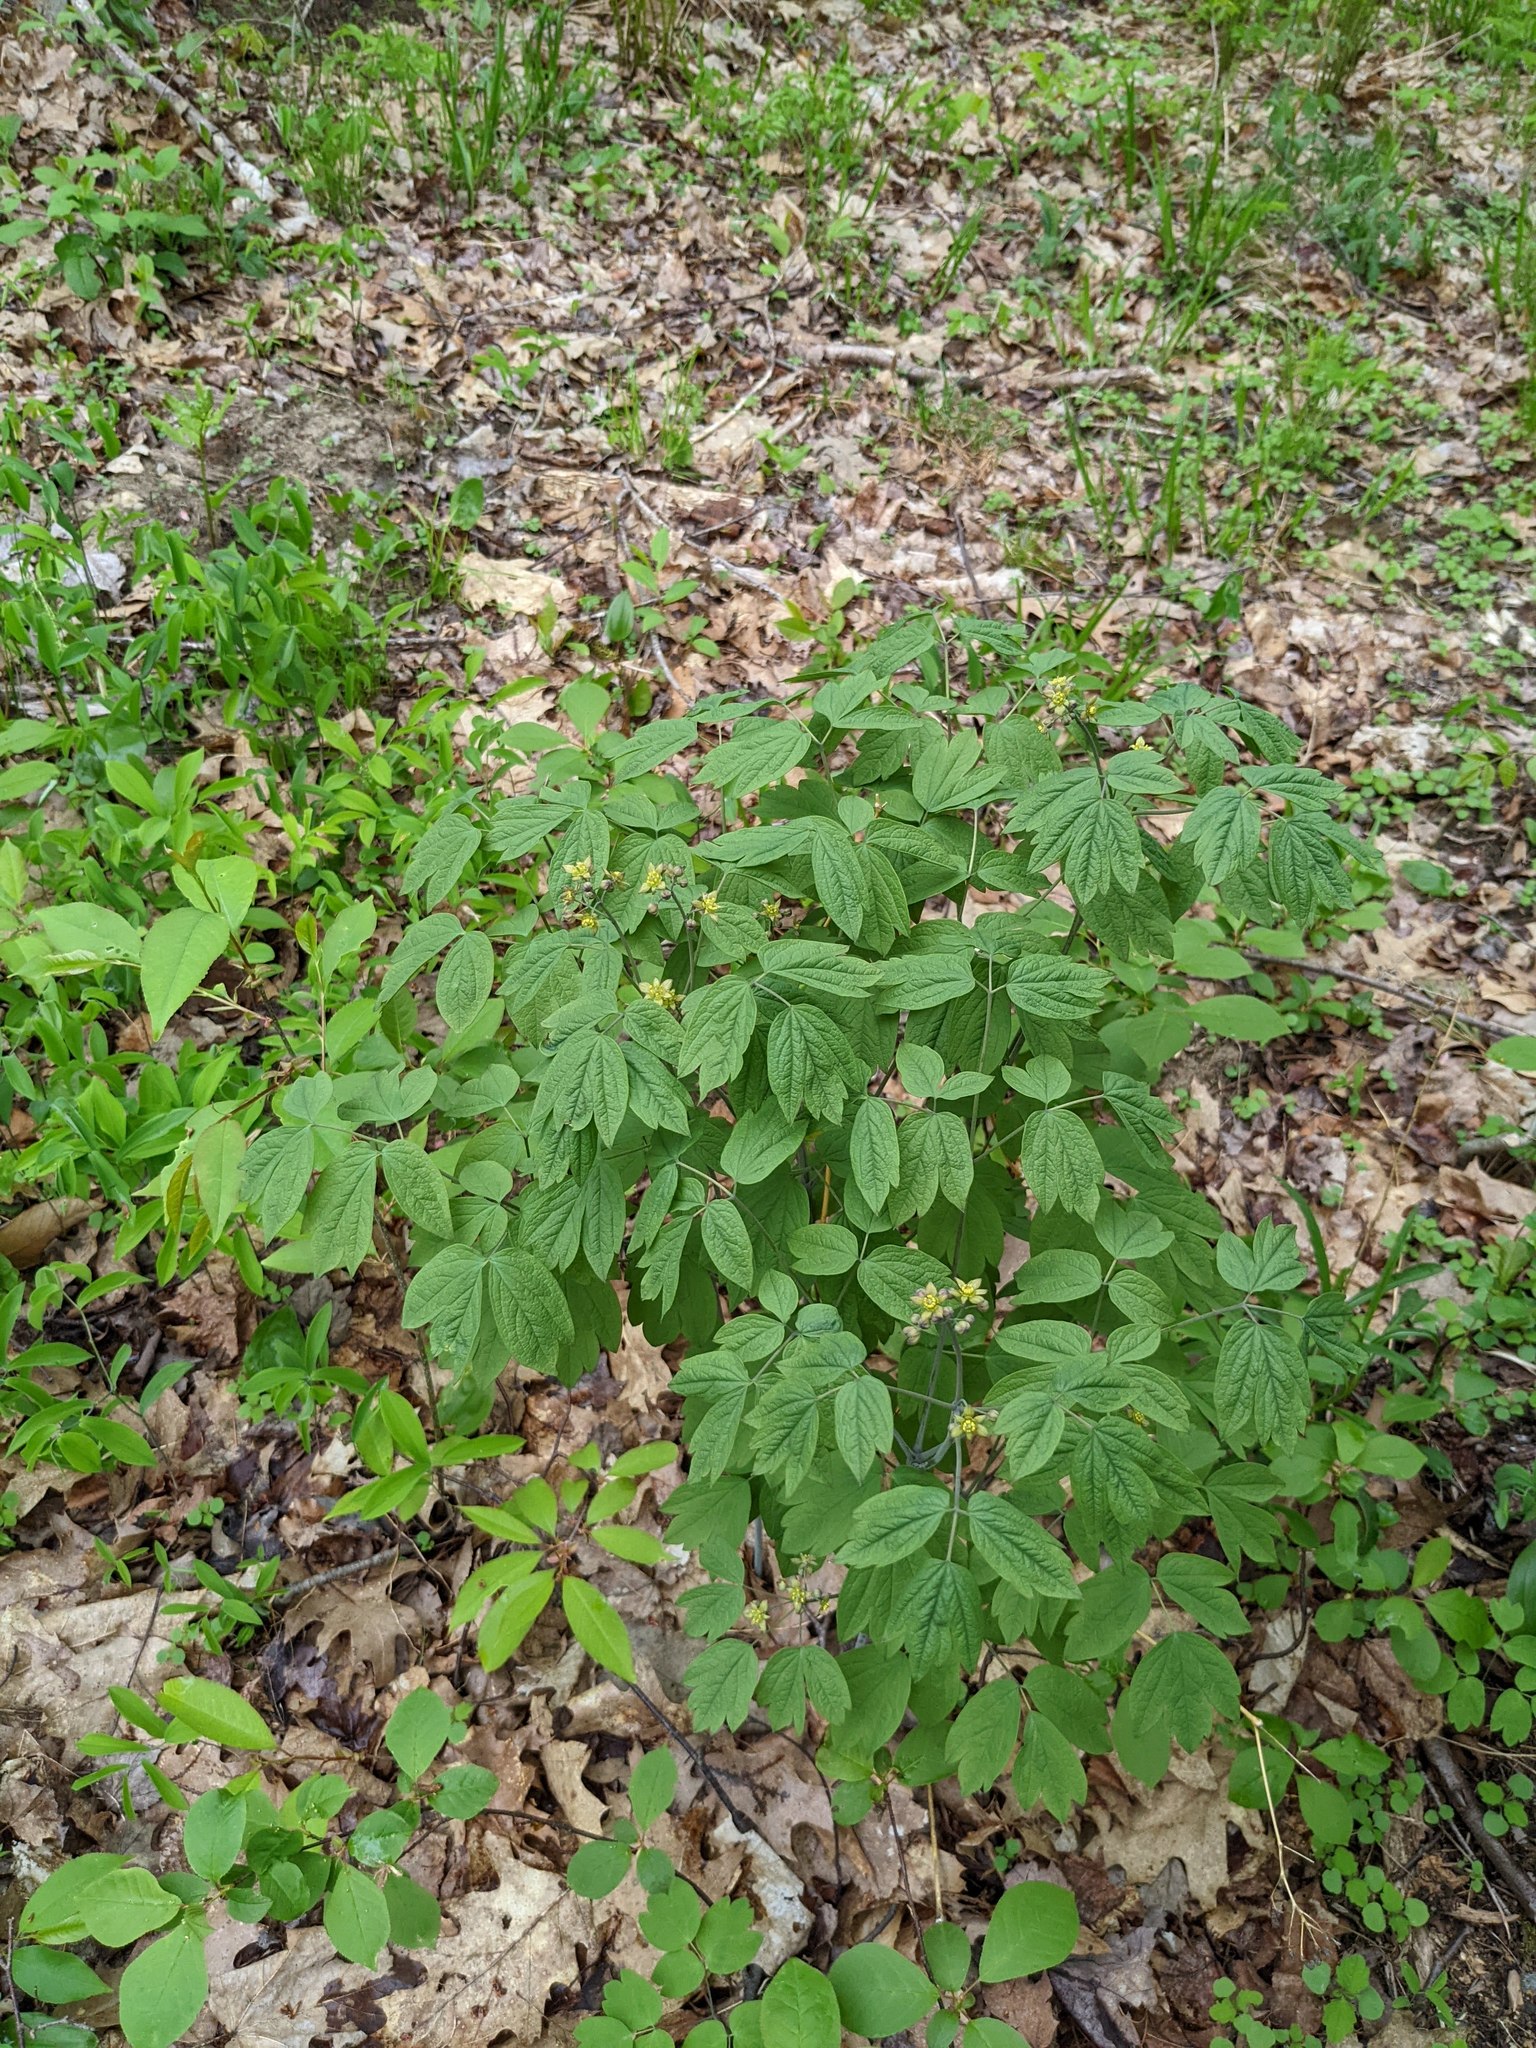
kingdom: Plantae
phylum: Tracheophyta
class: Magnoliopsida
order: Ranunculales
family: Berberidaceae
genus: Caulophyllum
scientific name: Caulophyllum thalictroides
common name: Blue cohosh
